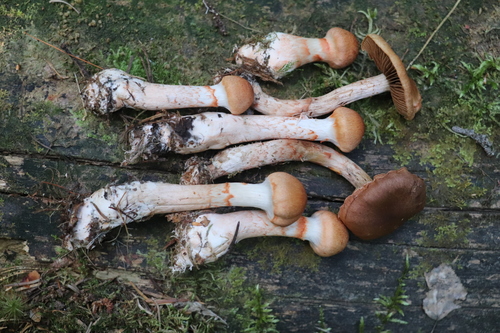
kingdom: Fungi
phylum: Basidiomycota
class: Agaricomycetes
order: Agaricales
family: Cortinariaceae
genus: Cortinarius
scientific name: Cortinarius armillatus
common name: Red banded webcap
